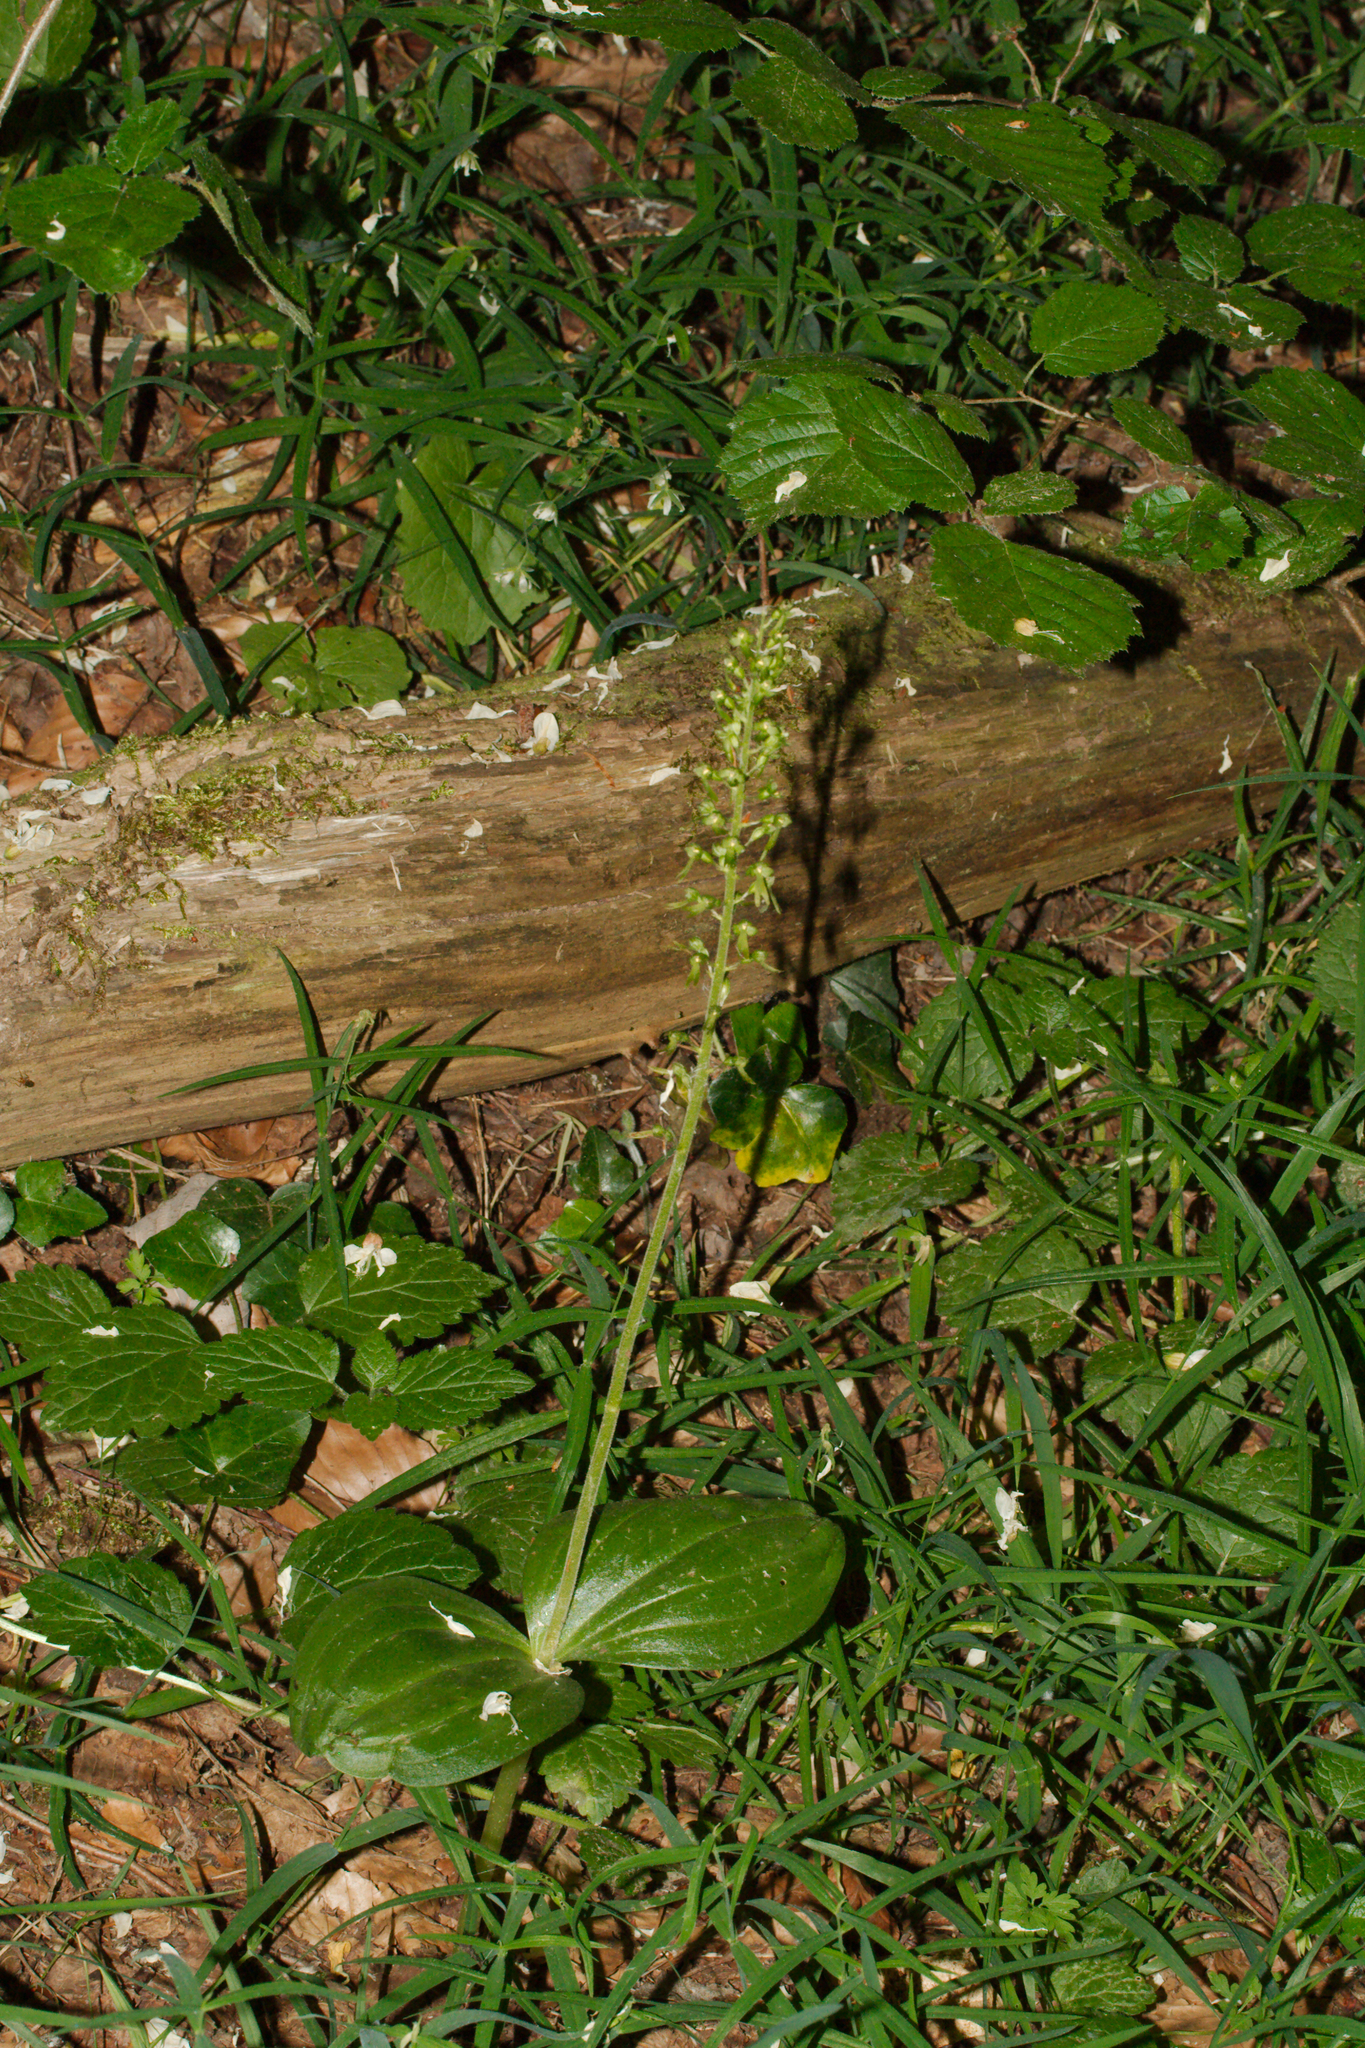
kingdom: Plantae
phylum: Tracheophyta
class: Liliopsida
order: Asparagales
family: Orchidaceae
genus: Neottia
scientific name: Neottia ovata
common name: Common twayblade
